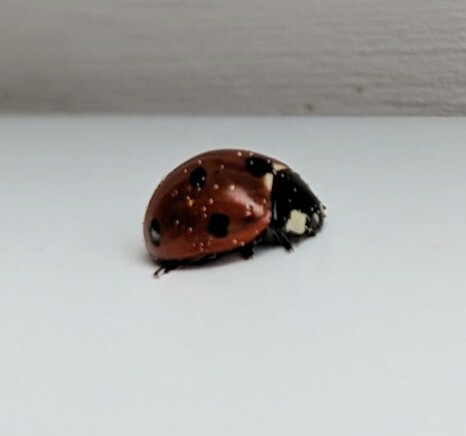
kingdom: Animalia
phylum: Arthropoda
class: Insecta
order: Coleoptera
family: Coccinellidae
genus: Coccinella
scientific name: Coccinella septempunctata
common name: Sevenspotted lady beetle
